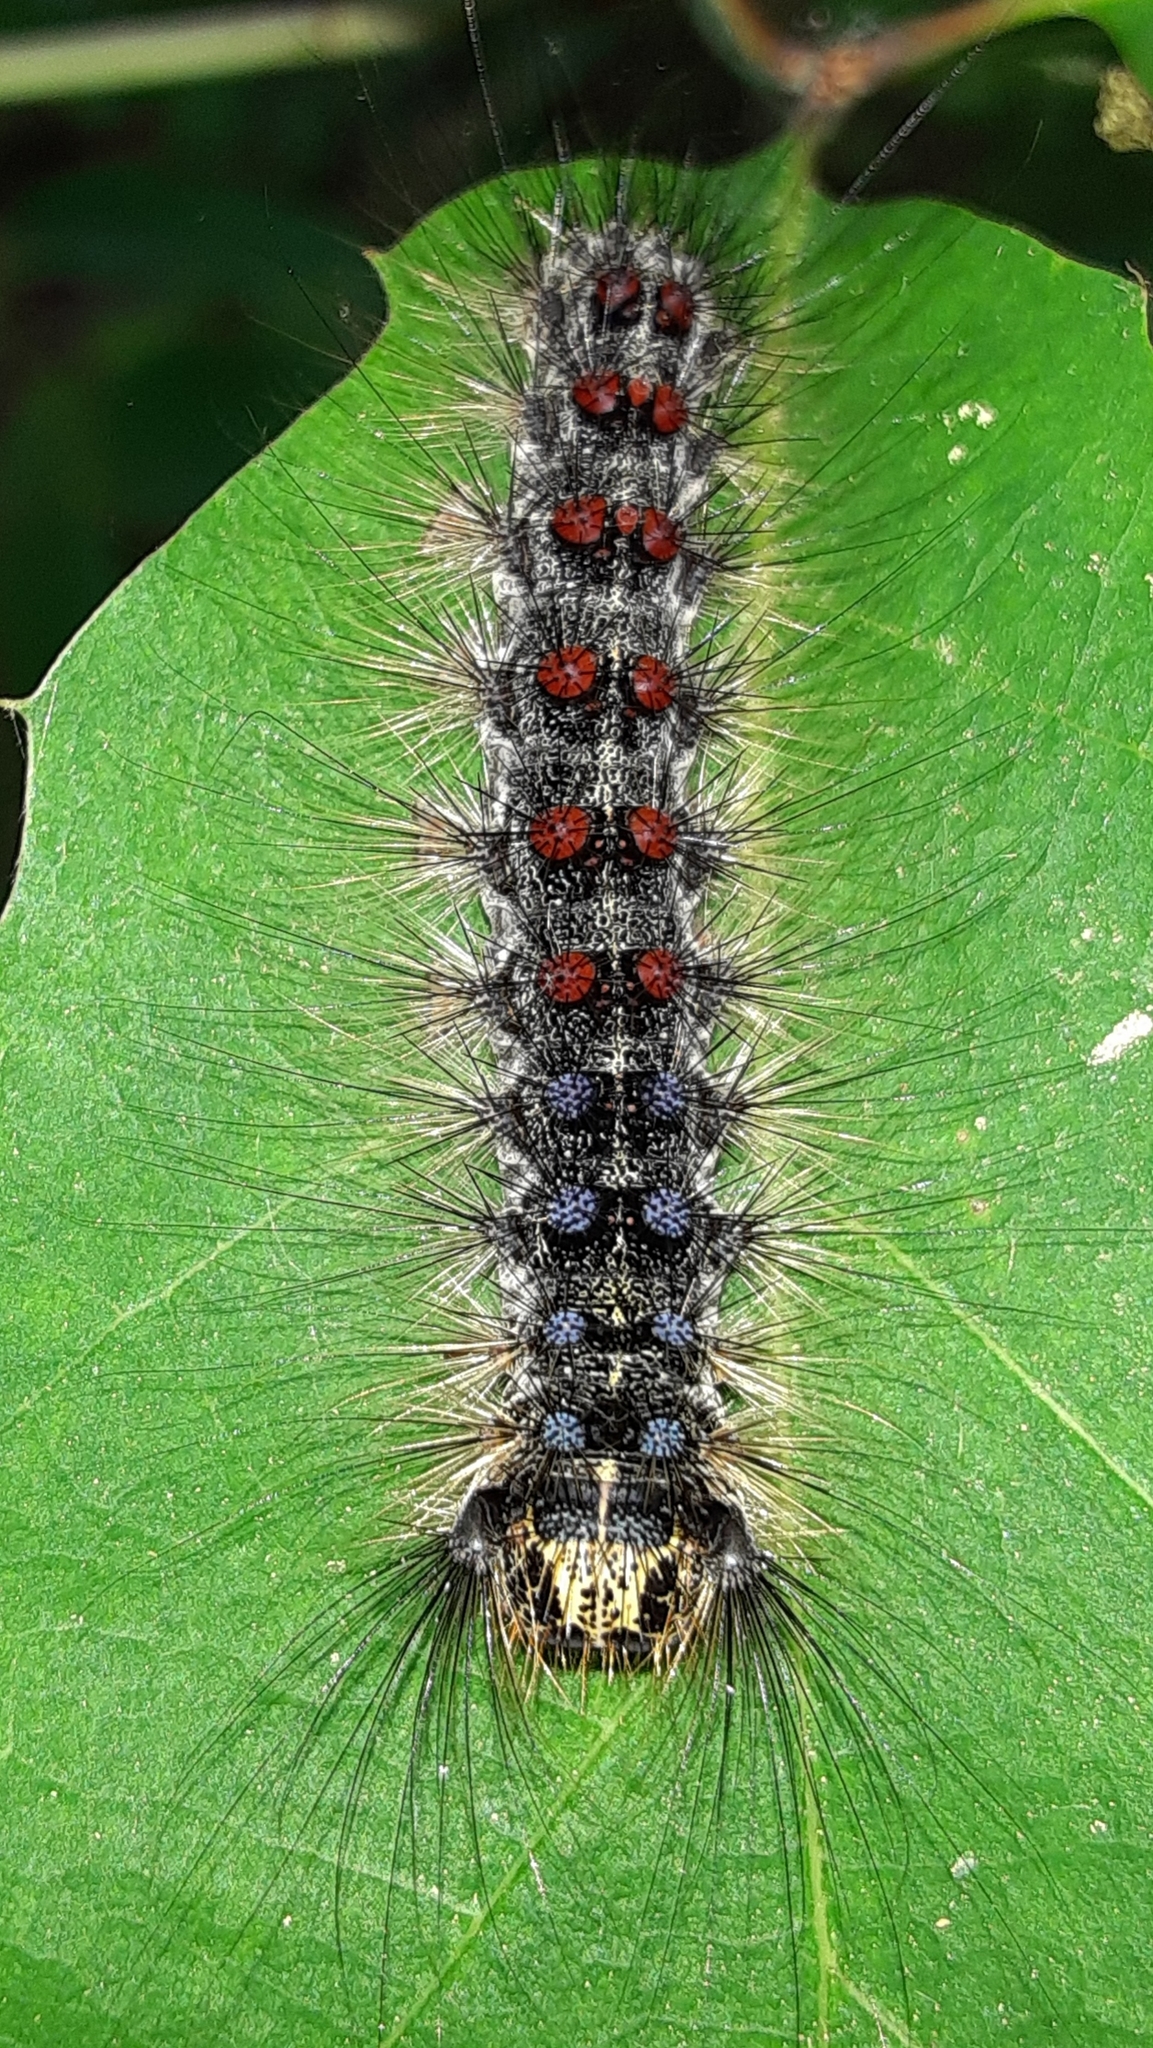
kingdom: Animalia
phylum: Arthropoda
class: Insecta
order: Lepidoptera
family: Erebidae
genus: Lymantria
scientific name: Lymantria dispar
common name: Gypsy moth
